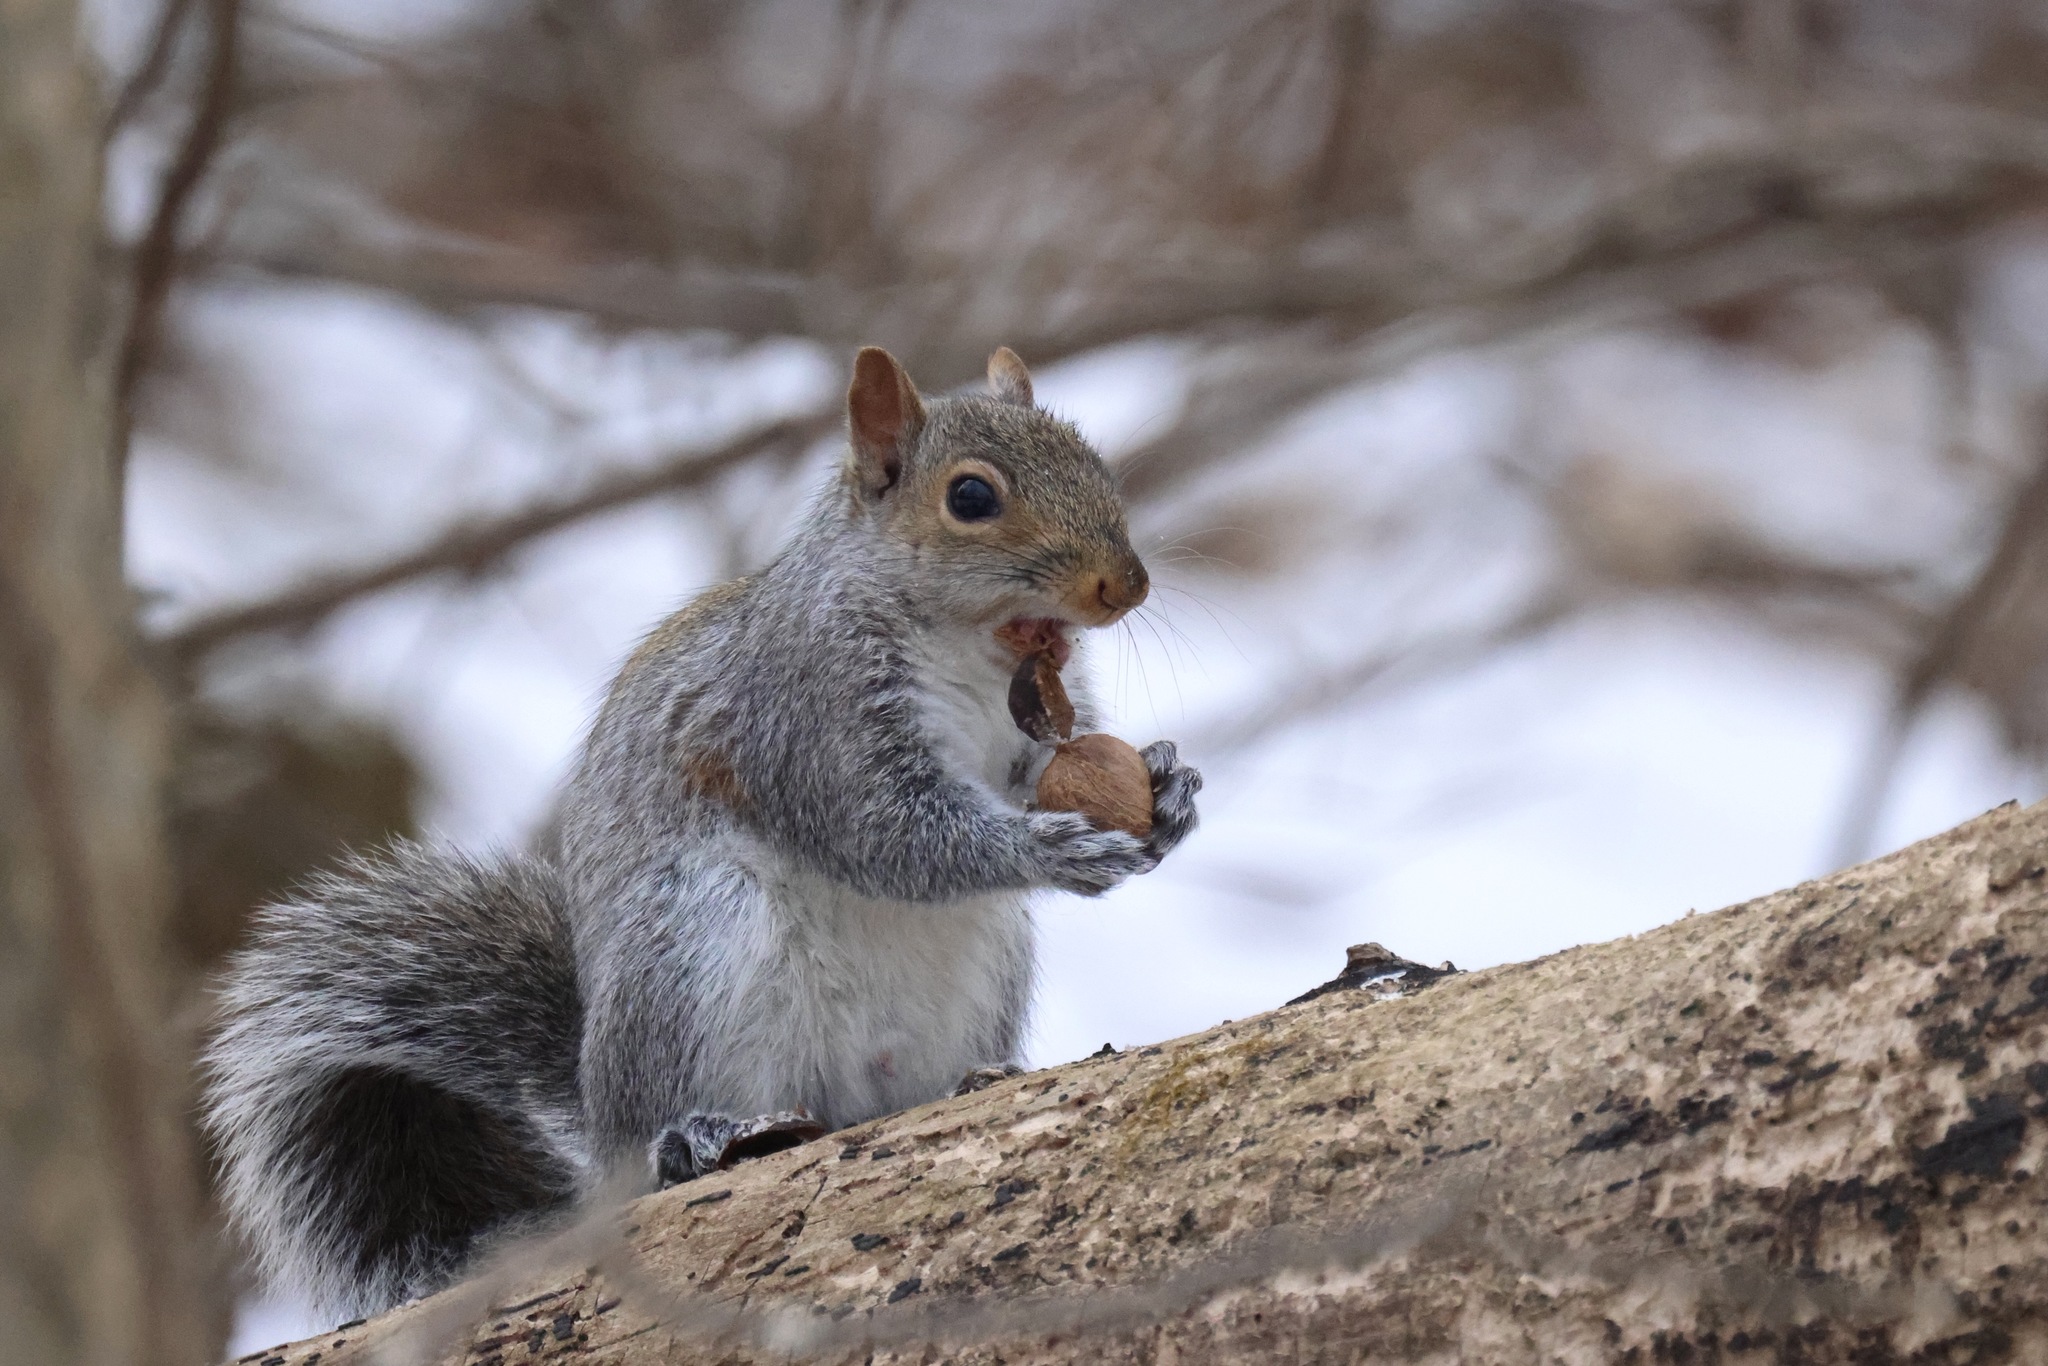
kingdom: Animalia
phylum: Chordata
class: Mammalia
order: Rodentia
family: Sciuridae
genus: Sciurus
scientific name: Sciurus carolinensis
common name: Eastern gray squirrel
